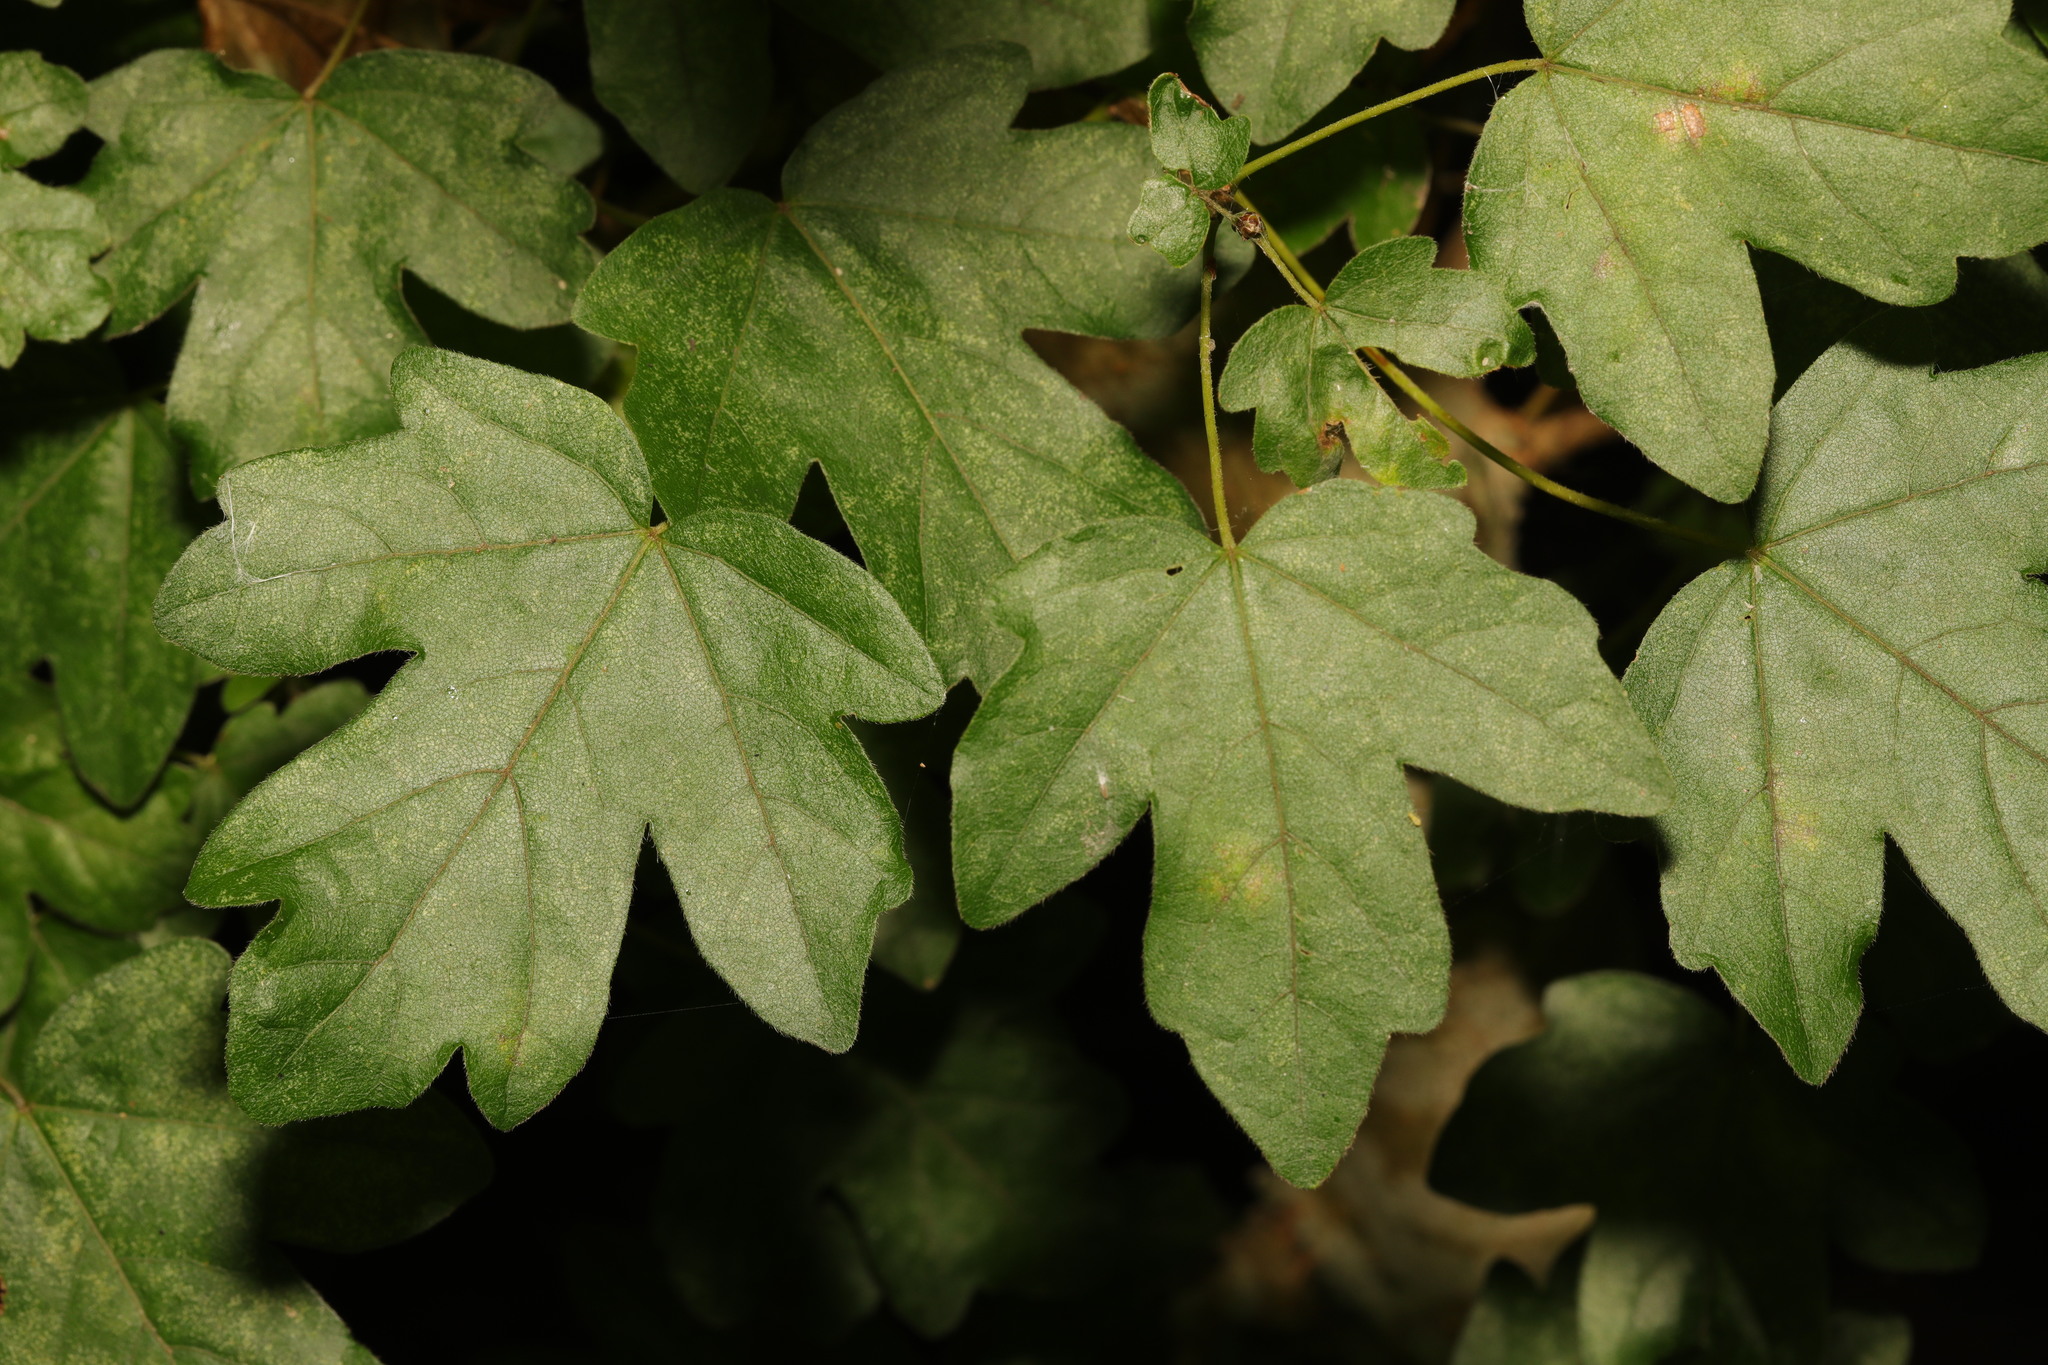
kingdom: Plantae
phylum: Tracheophyta
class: Magnoliopsida
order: Sapindales
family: Sapindaceae
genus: Acer
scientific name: Acer campestre
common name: Field maple
